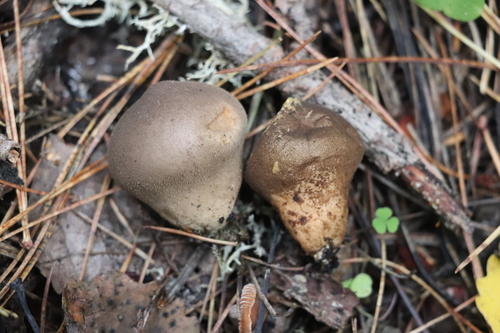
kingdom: Fungi
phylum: Basidiomycota
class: Agaricomycetes
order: Agaricales
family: Lycoperdaceae
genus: Lycoperdon
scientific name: Lycoperdon umbrinum
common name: Umber-brown puffball
